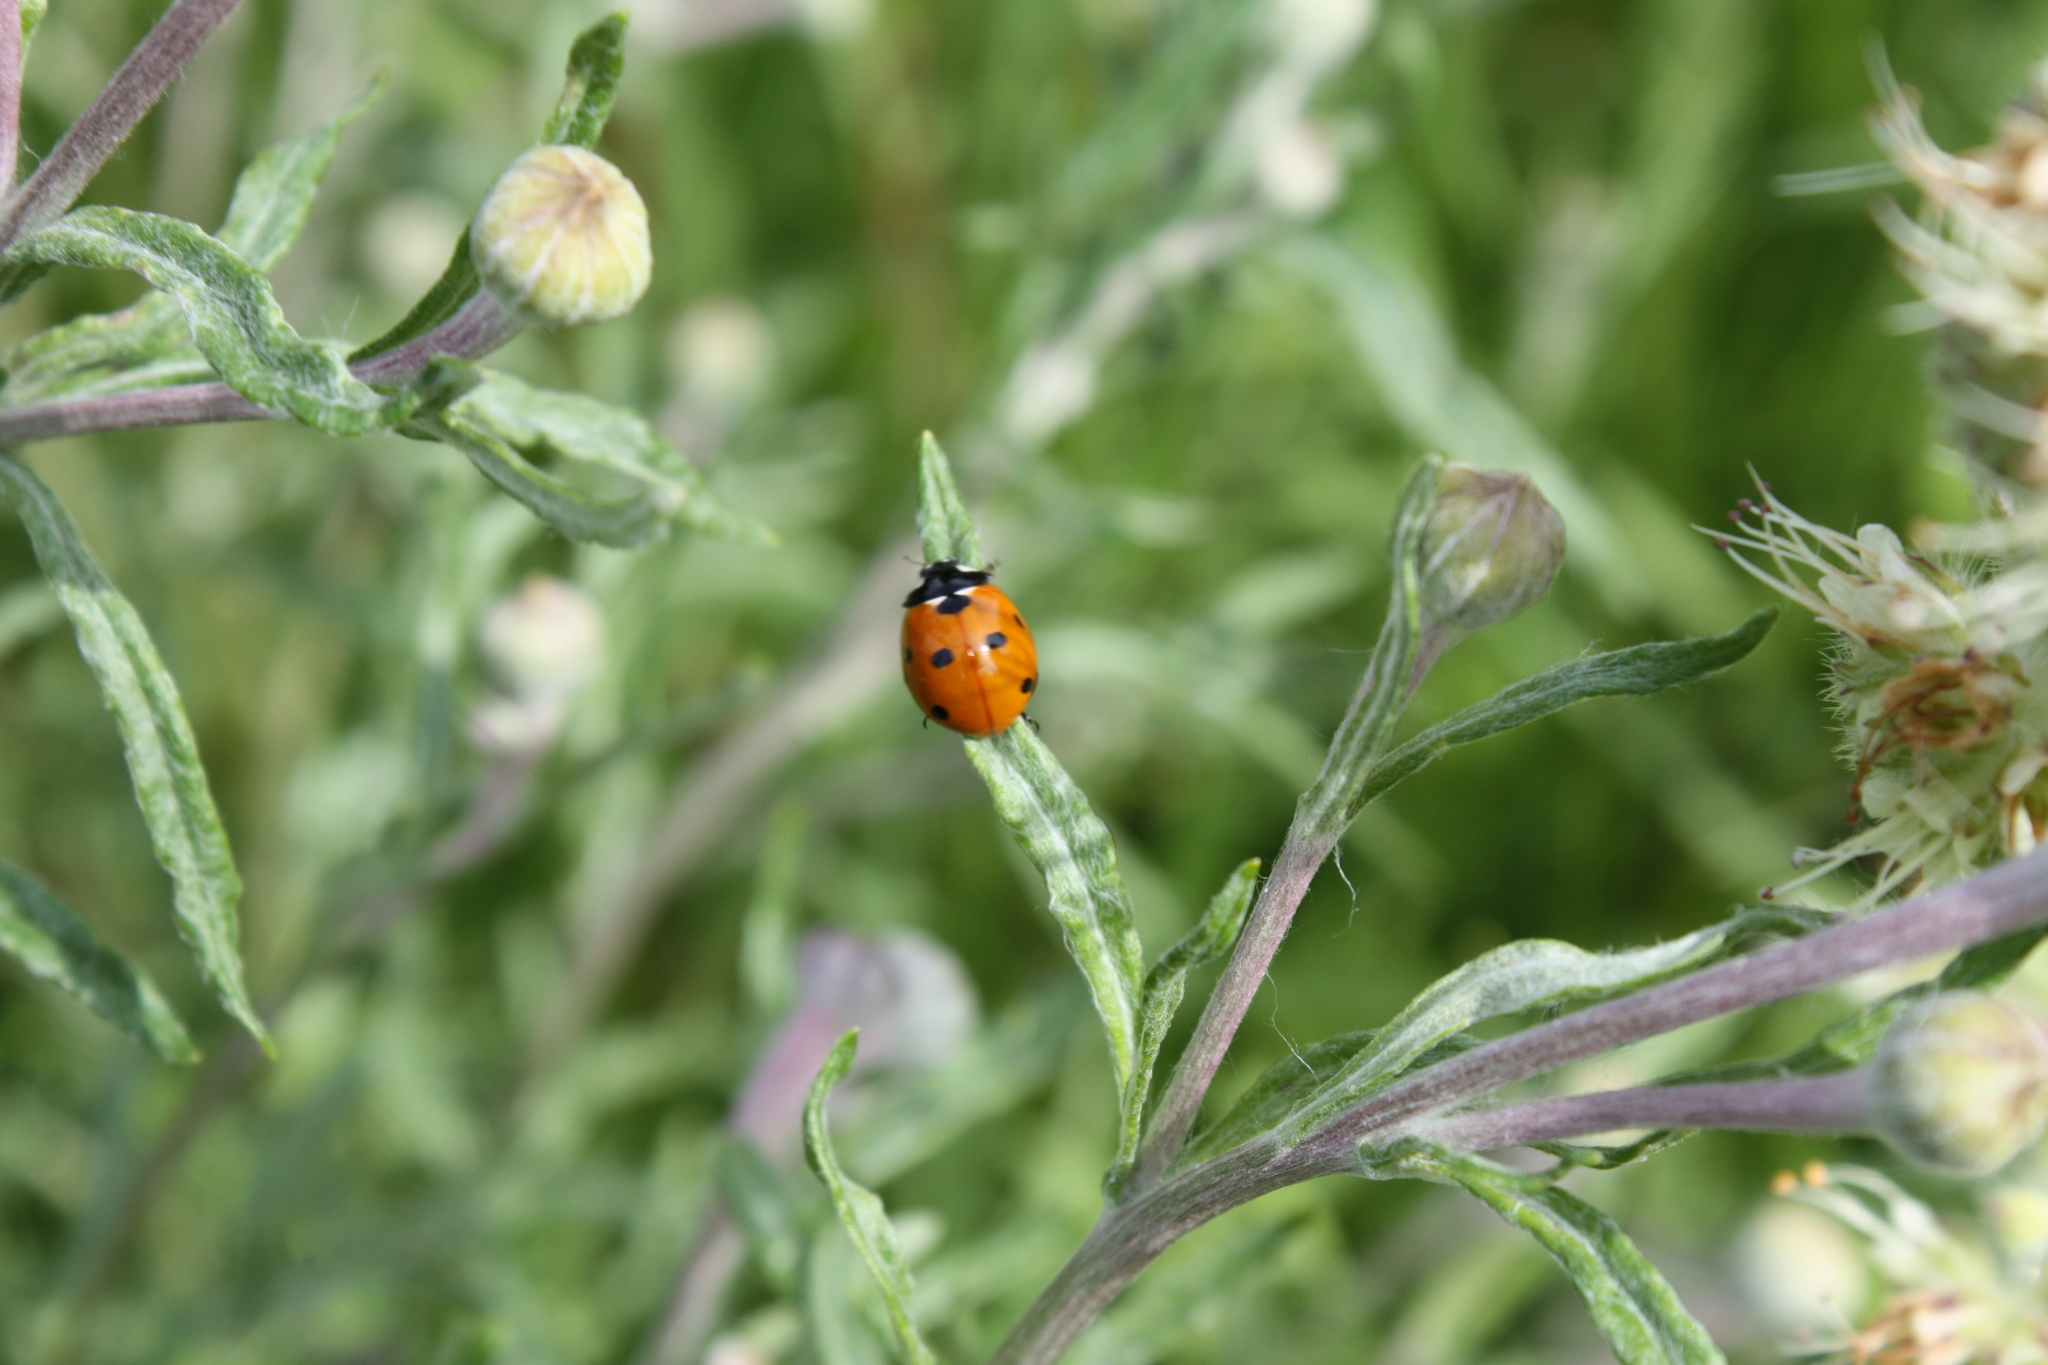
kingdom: Animalia
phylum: Arthropoda
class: Insecta
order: Coleoptera
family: Coccinellidae
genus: Coccinella
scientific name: Coccinella septempunctata
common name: Sevenspotted lady beetle
